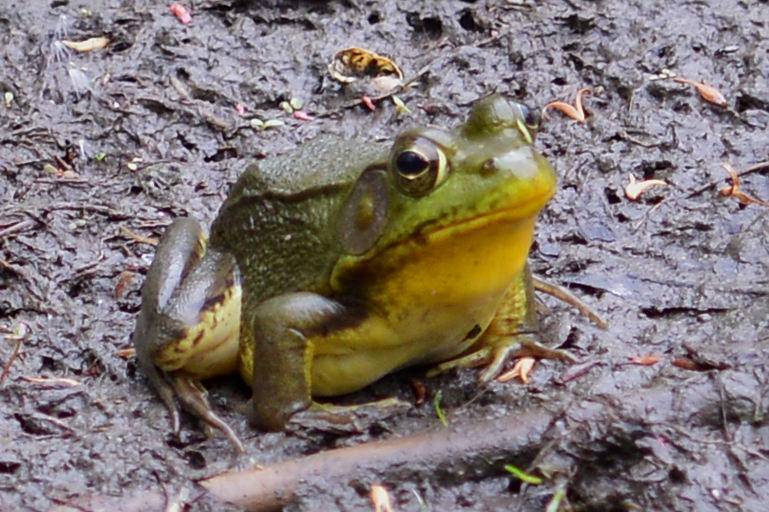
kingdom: Animalia
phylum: Chordata
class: Amphibia
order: Anura
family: Ranidae
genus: Lithobates
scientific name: Lithobates clamitans
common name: Green frog
